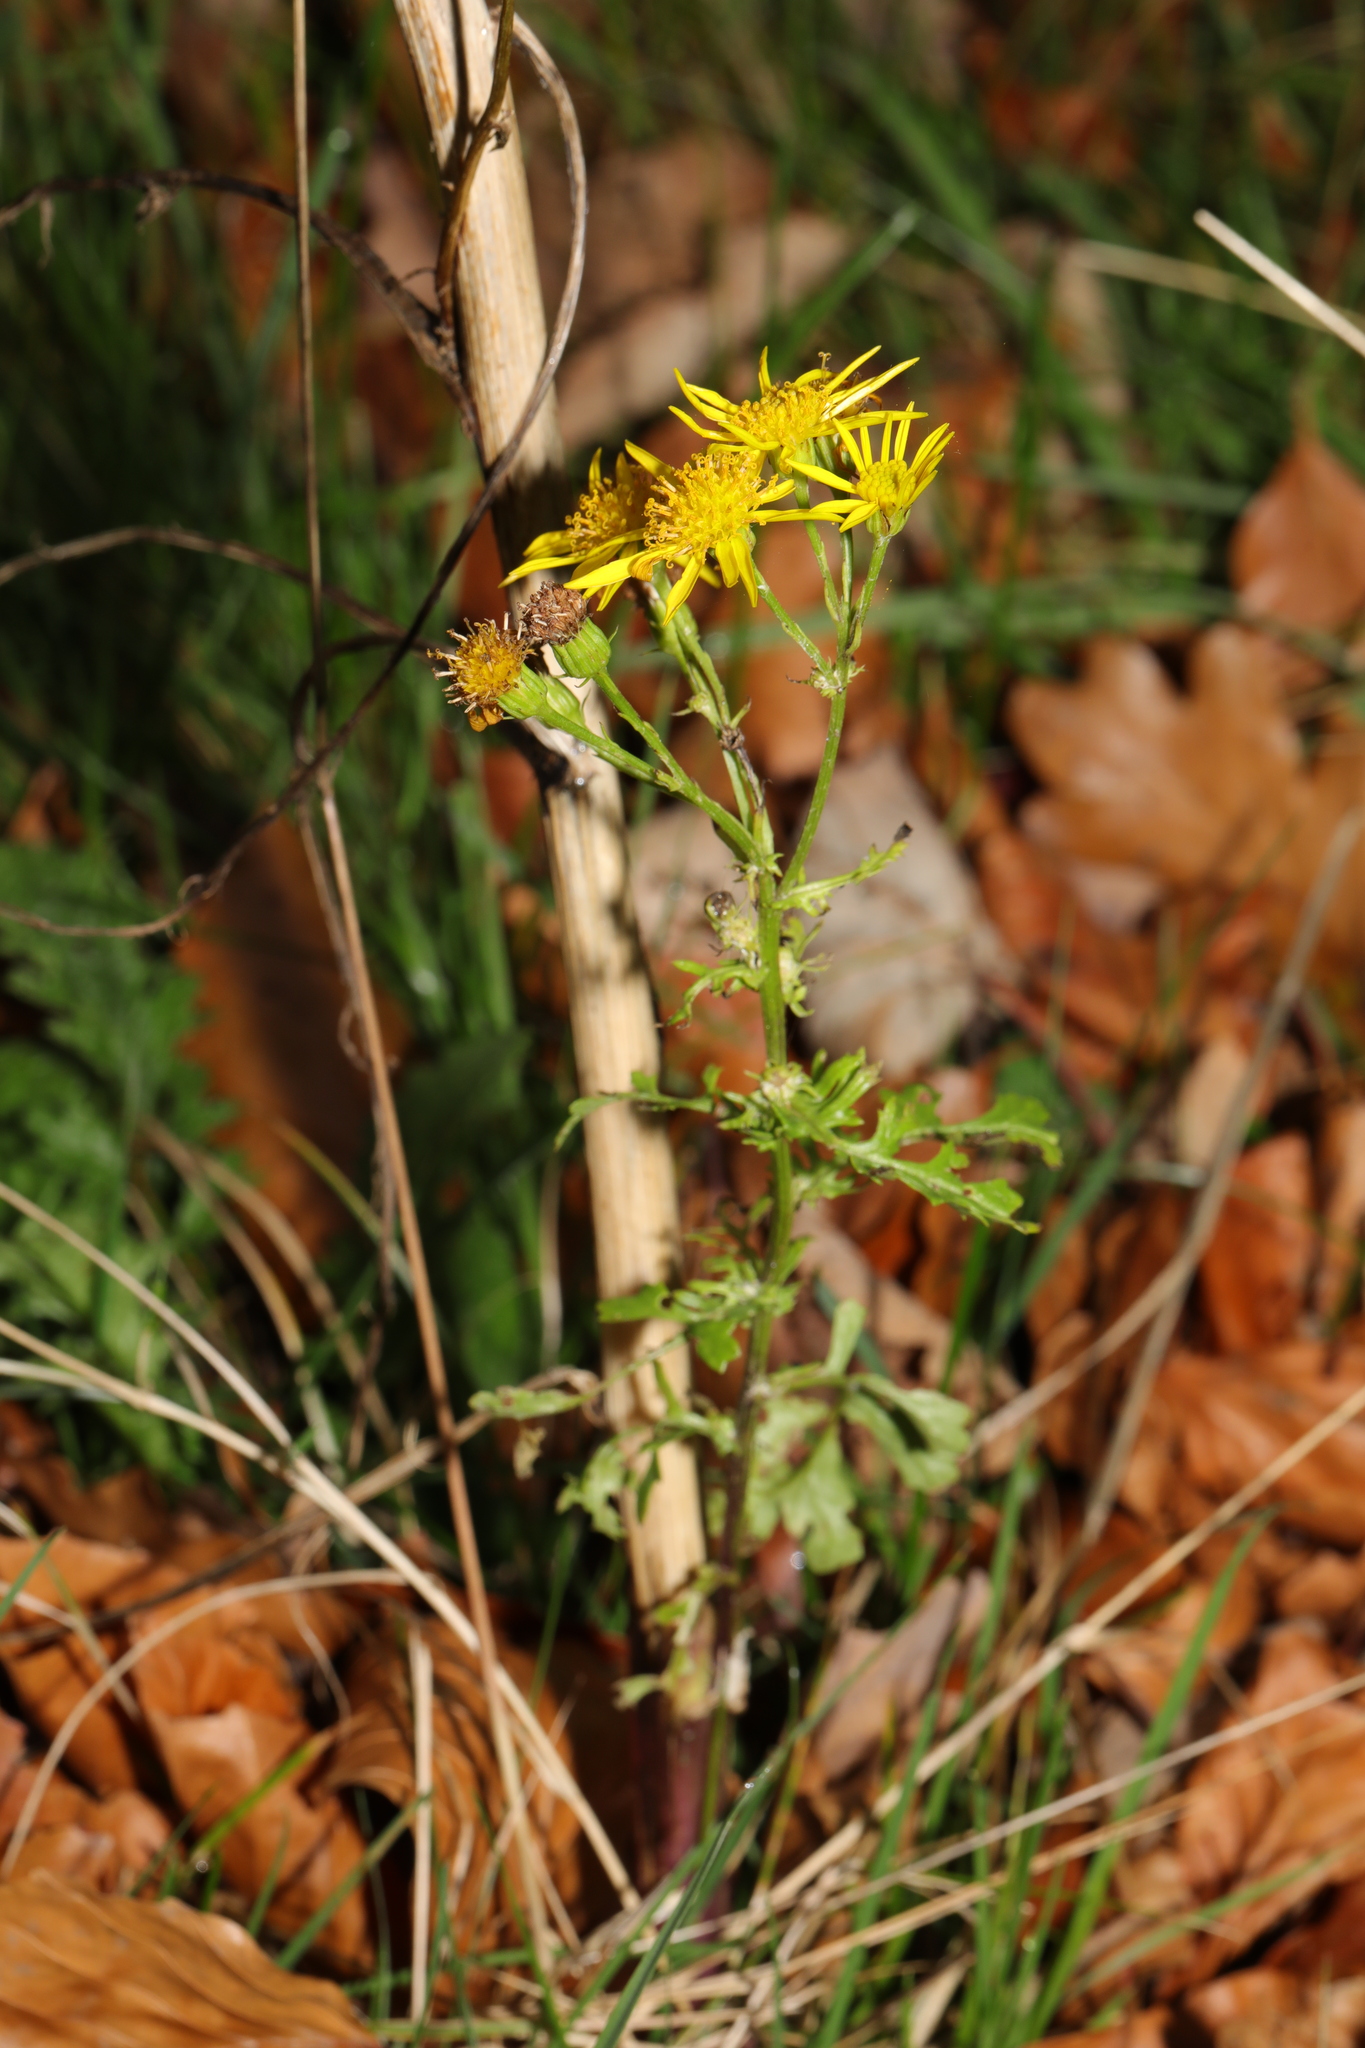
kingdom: Plantae
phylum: Tracheophyta
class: Magnoliopsida
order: Asterales
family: Asteraceae
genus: Jacobaea
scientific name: Jacobaea vulgaris
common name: Stinking willie
